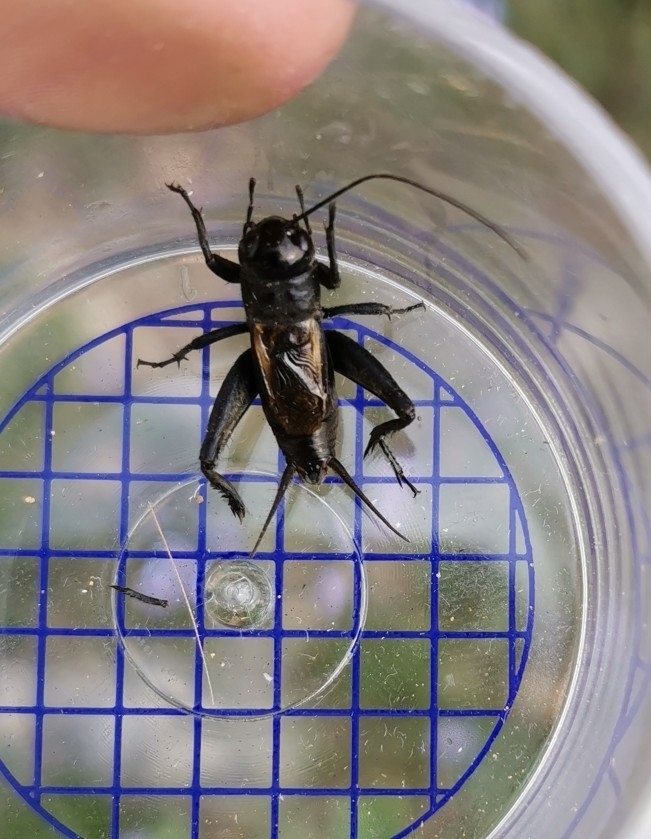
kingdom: Animalia
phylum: Arthropoda
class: Insecta
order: Orthoptera
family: Gryllidae
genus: Melanogryllus
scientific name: Melanogryllus desertus
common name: Desert cricket
